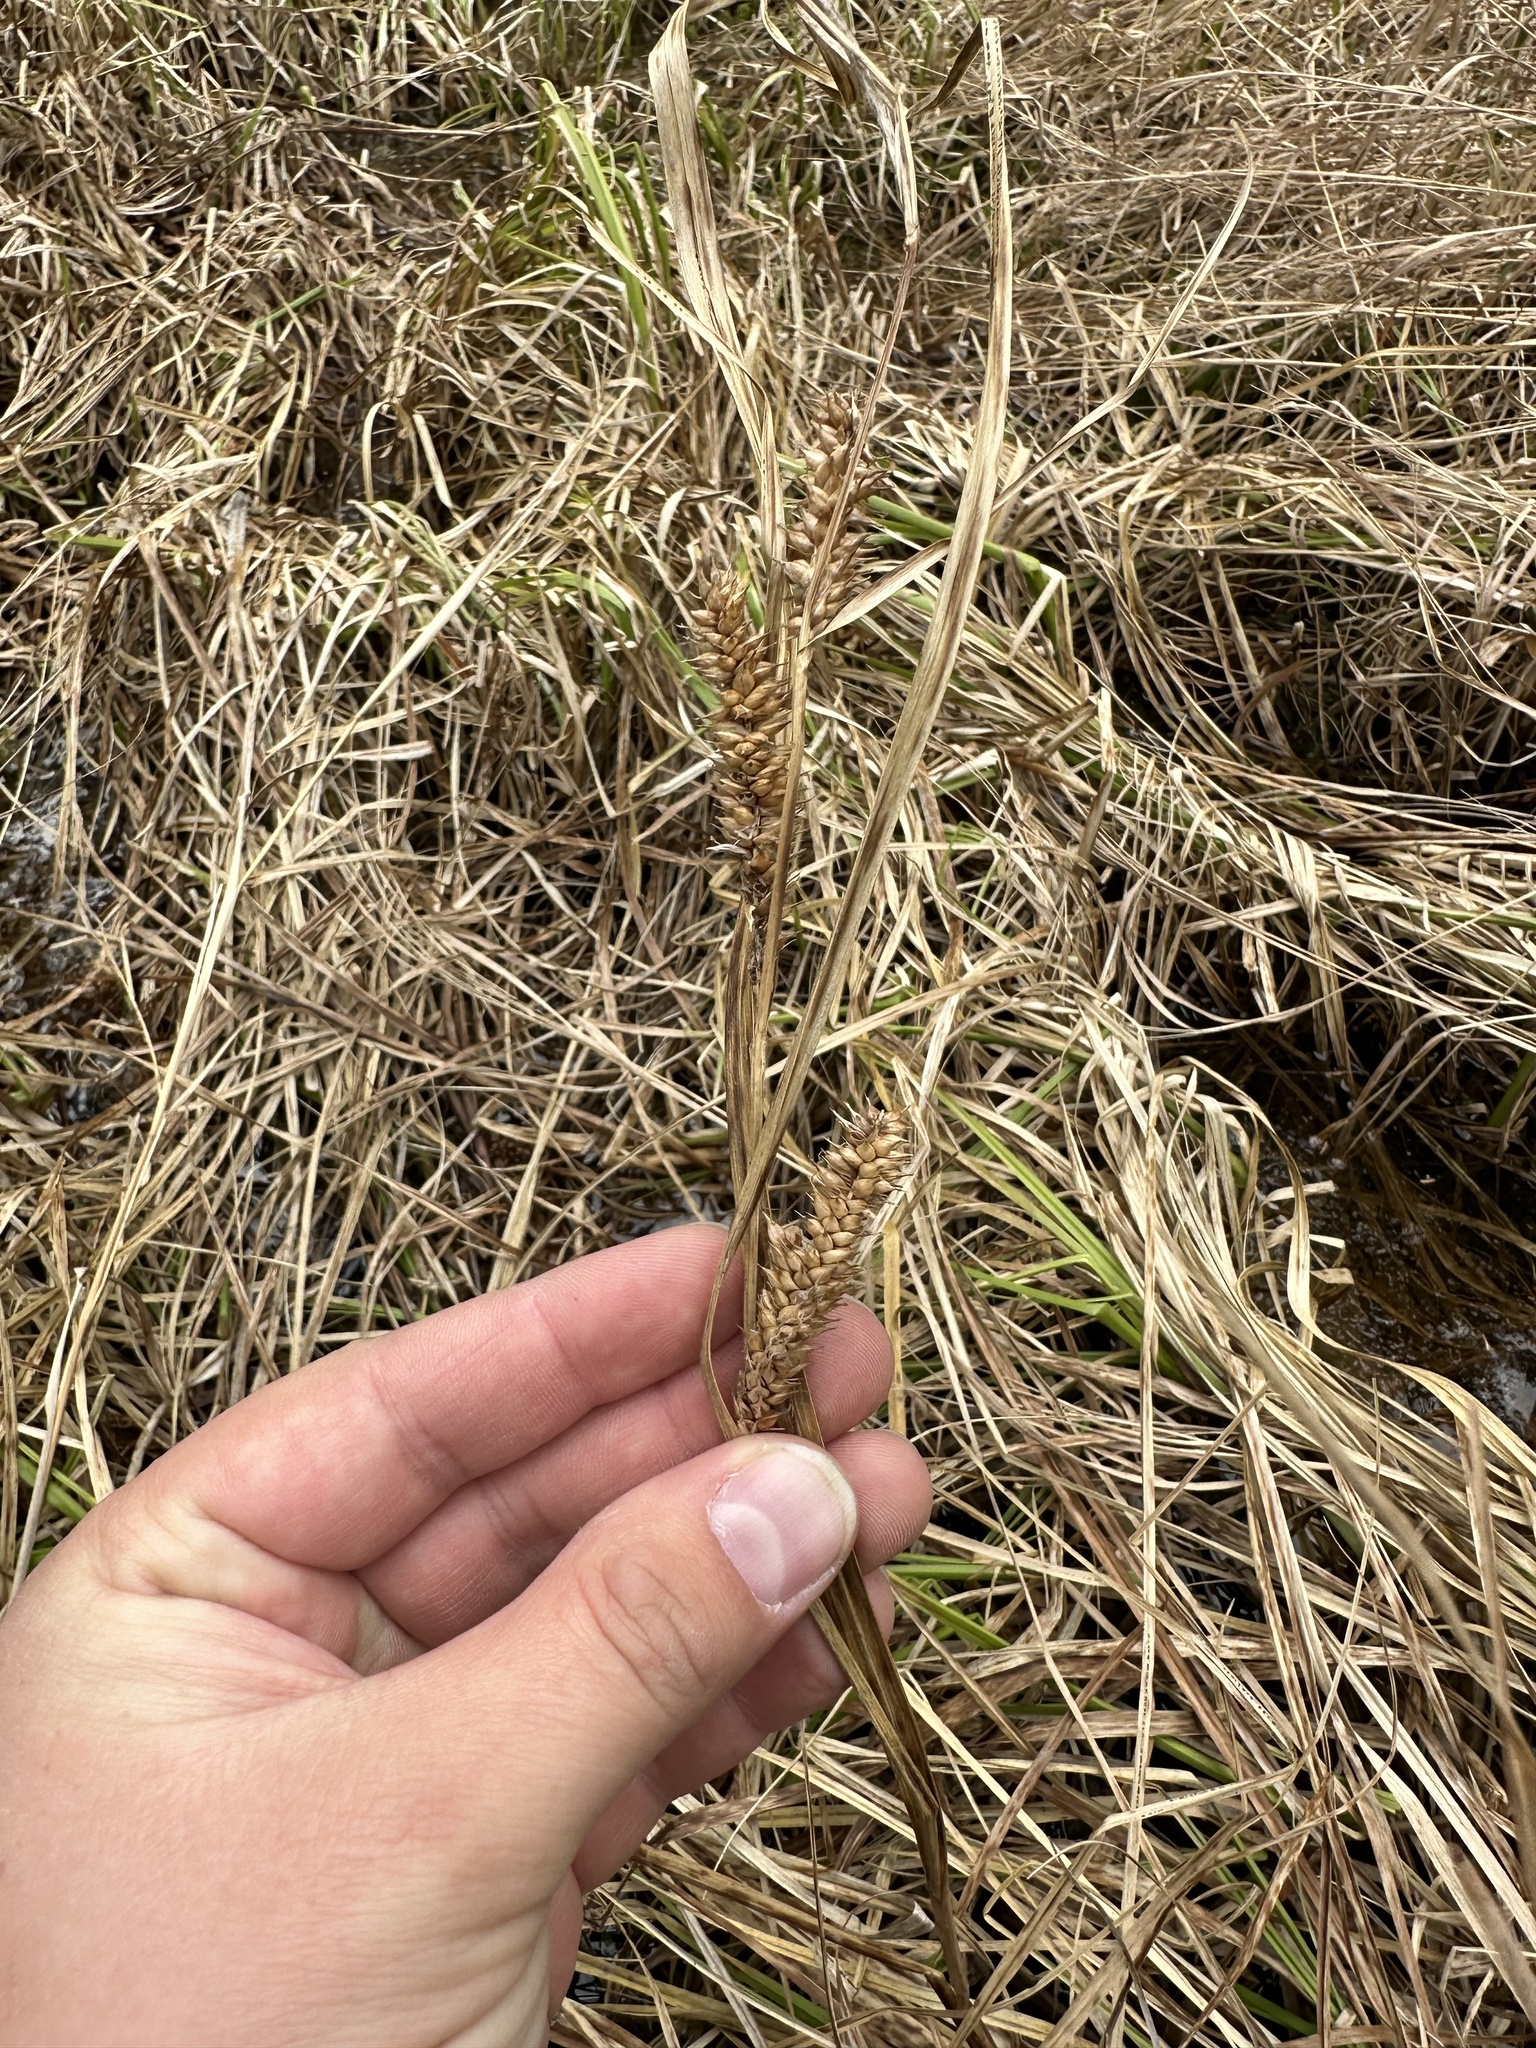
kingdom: Plantae
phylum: Tracheophyta
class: Liliopsida
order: Poales
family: Cyperaceae
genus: Carex
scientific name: Carex utriculata
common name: Beaked sedge
